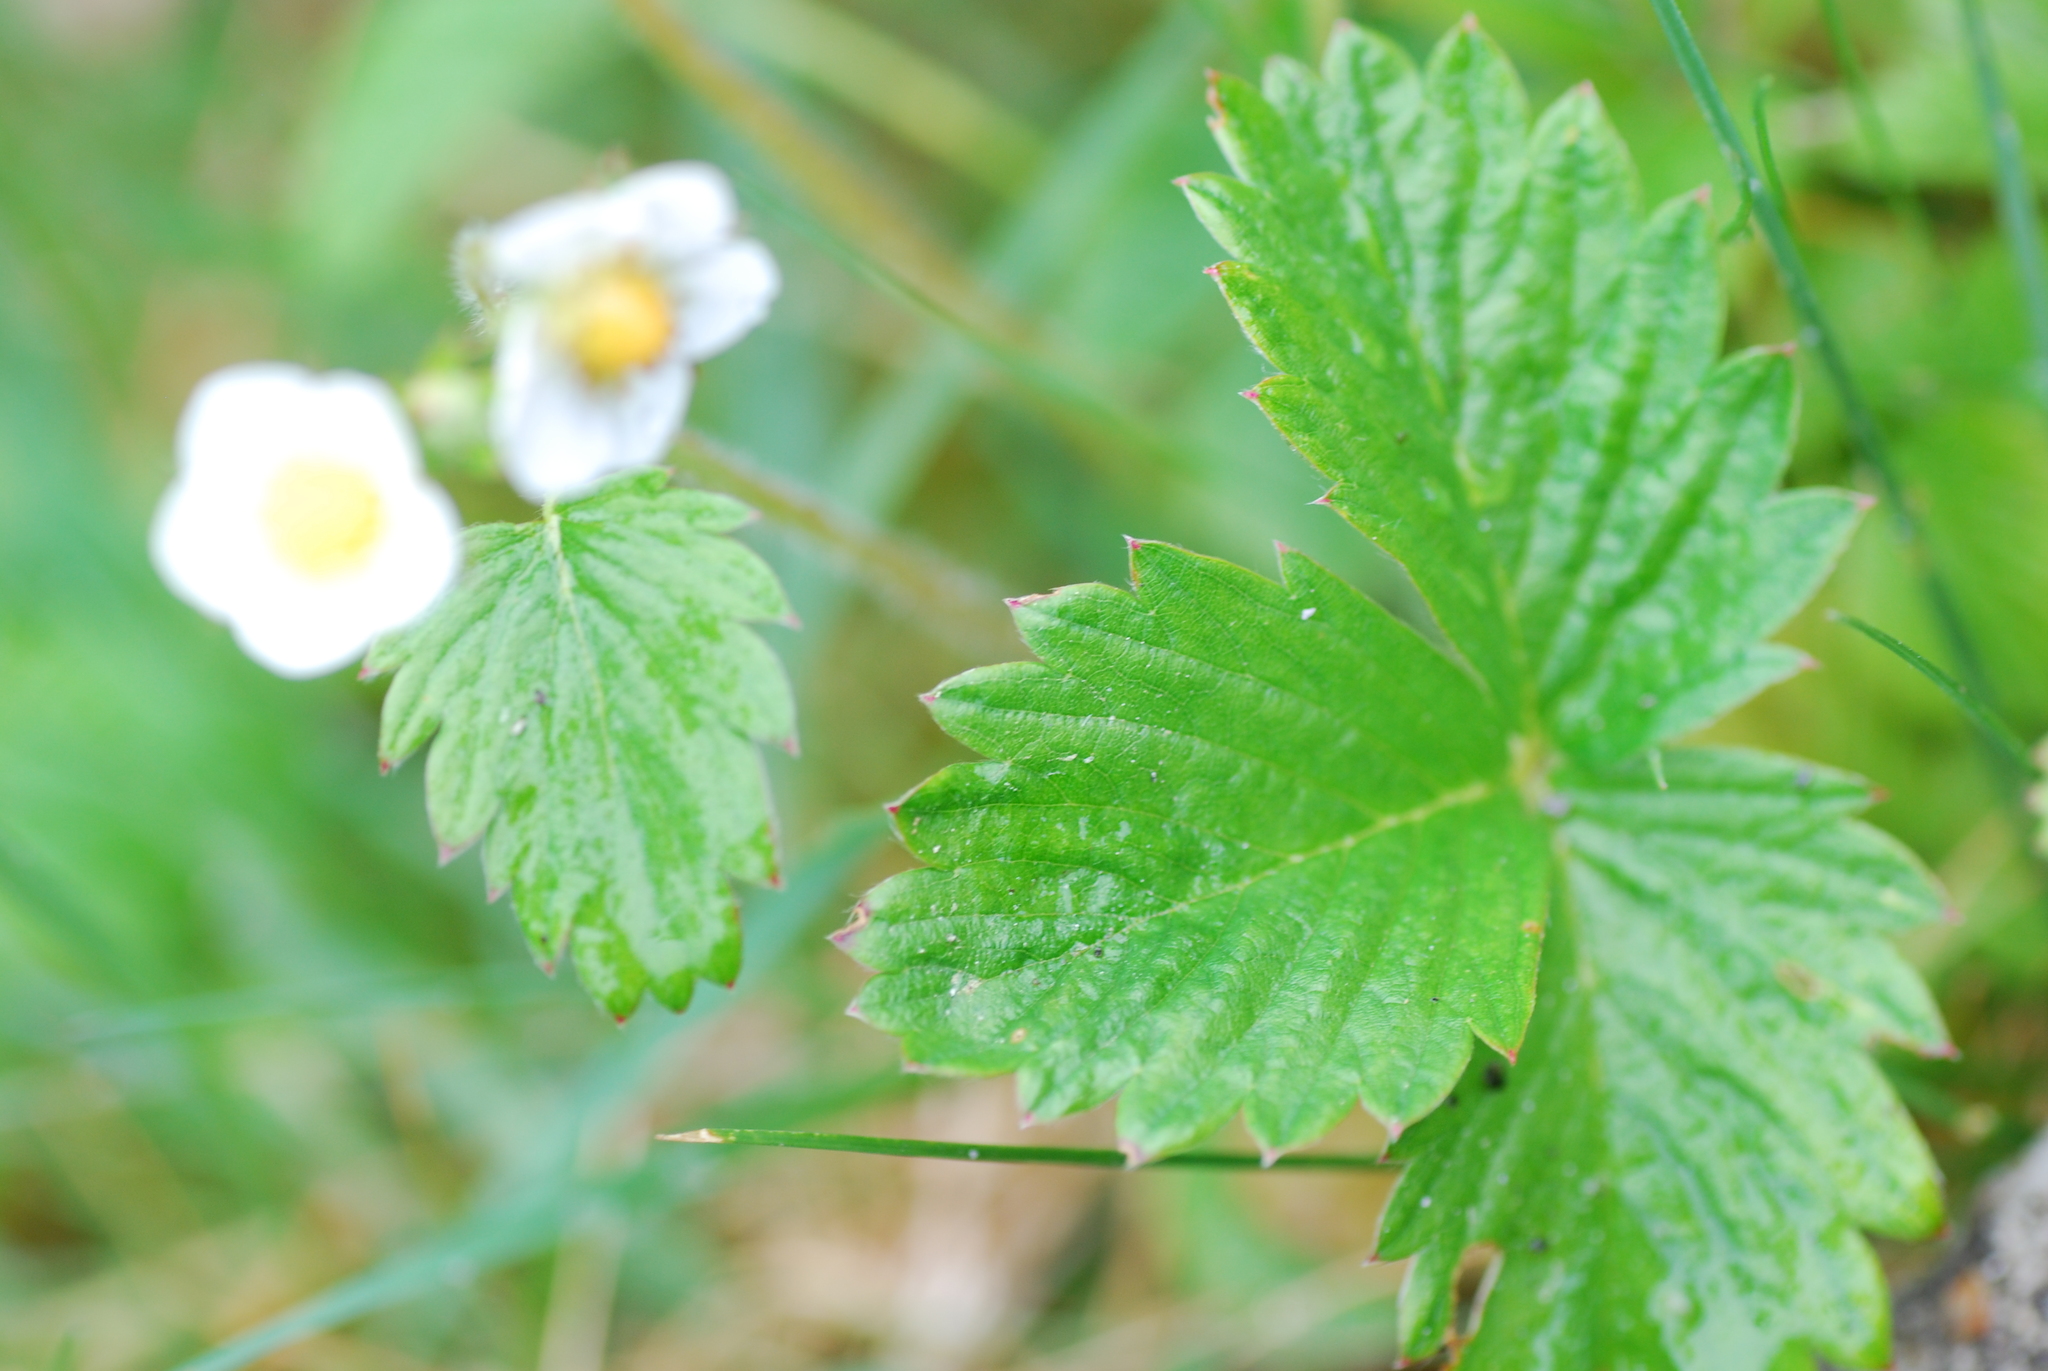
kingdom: Plantae
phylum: Tracheophyta
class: Magnoliopsida
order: Rosales
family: Rosaceae
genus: Fragaria
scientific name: Fragaria vesca
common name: Wild strawberry
